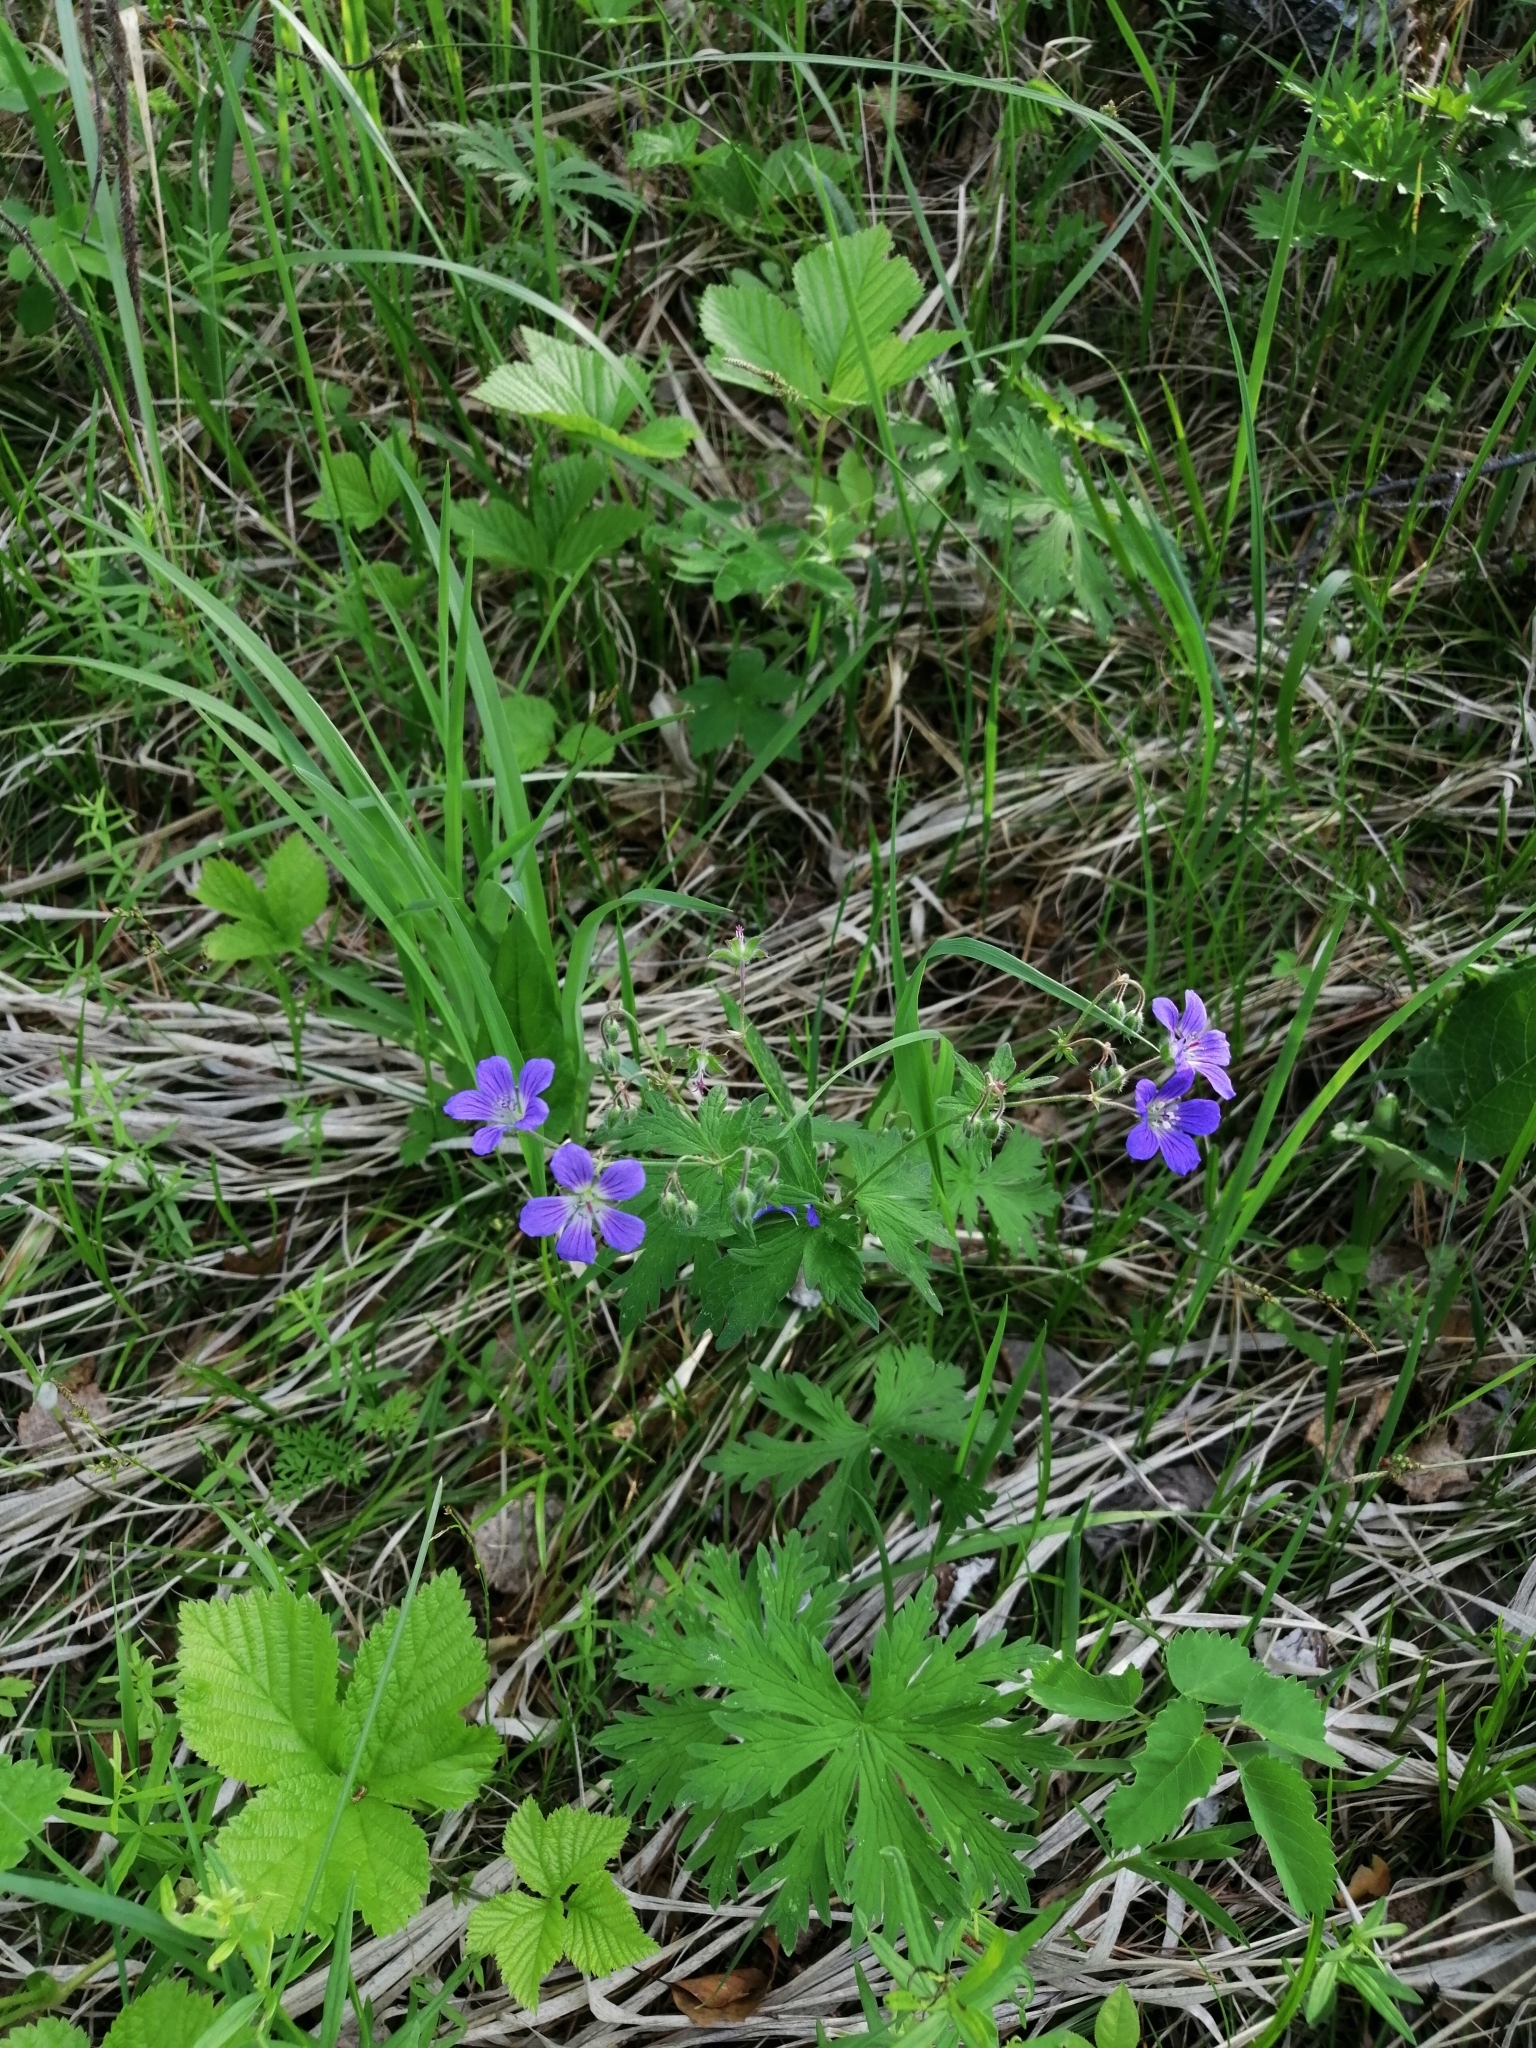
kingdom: Plantae
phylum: Tracheophyta
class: Magnoliopsida
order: Geraniales
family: Geraniaceae
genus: Geranium
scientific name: Geranium pseudosibiricum
